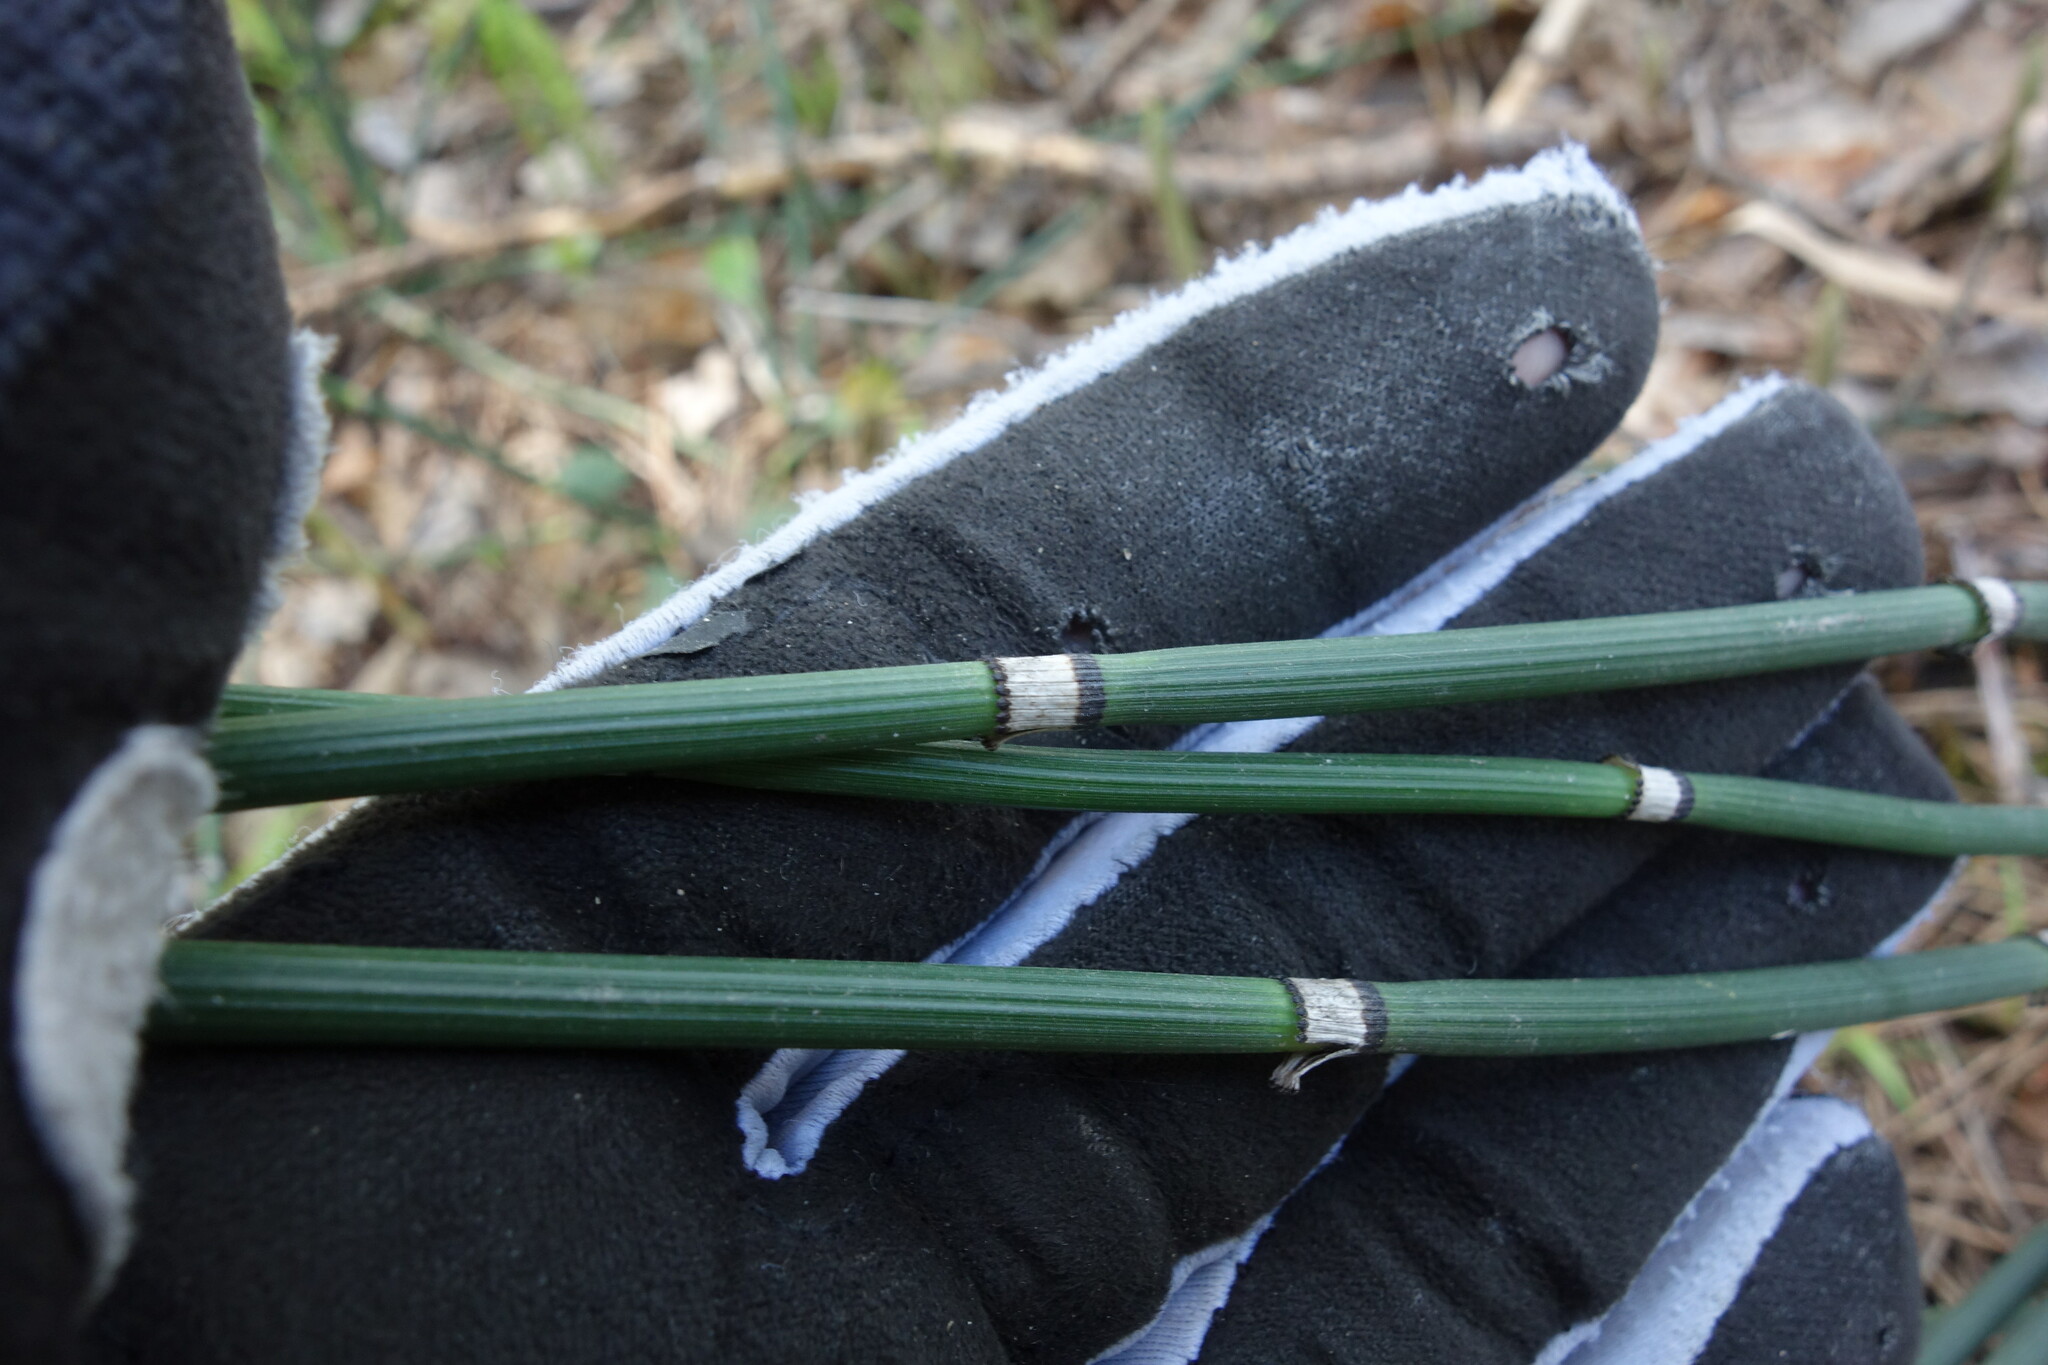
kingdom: Plantae
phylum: Tracheophyta
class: Polypodiopsida
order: Equisetales
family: Equisetaceae
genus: Equisetum
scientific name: Equisetum hyemale
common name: Rough horsetail
